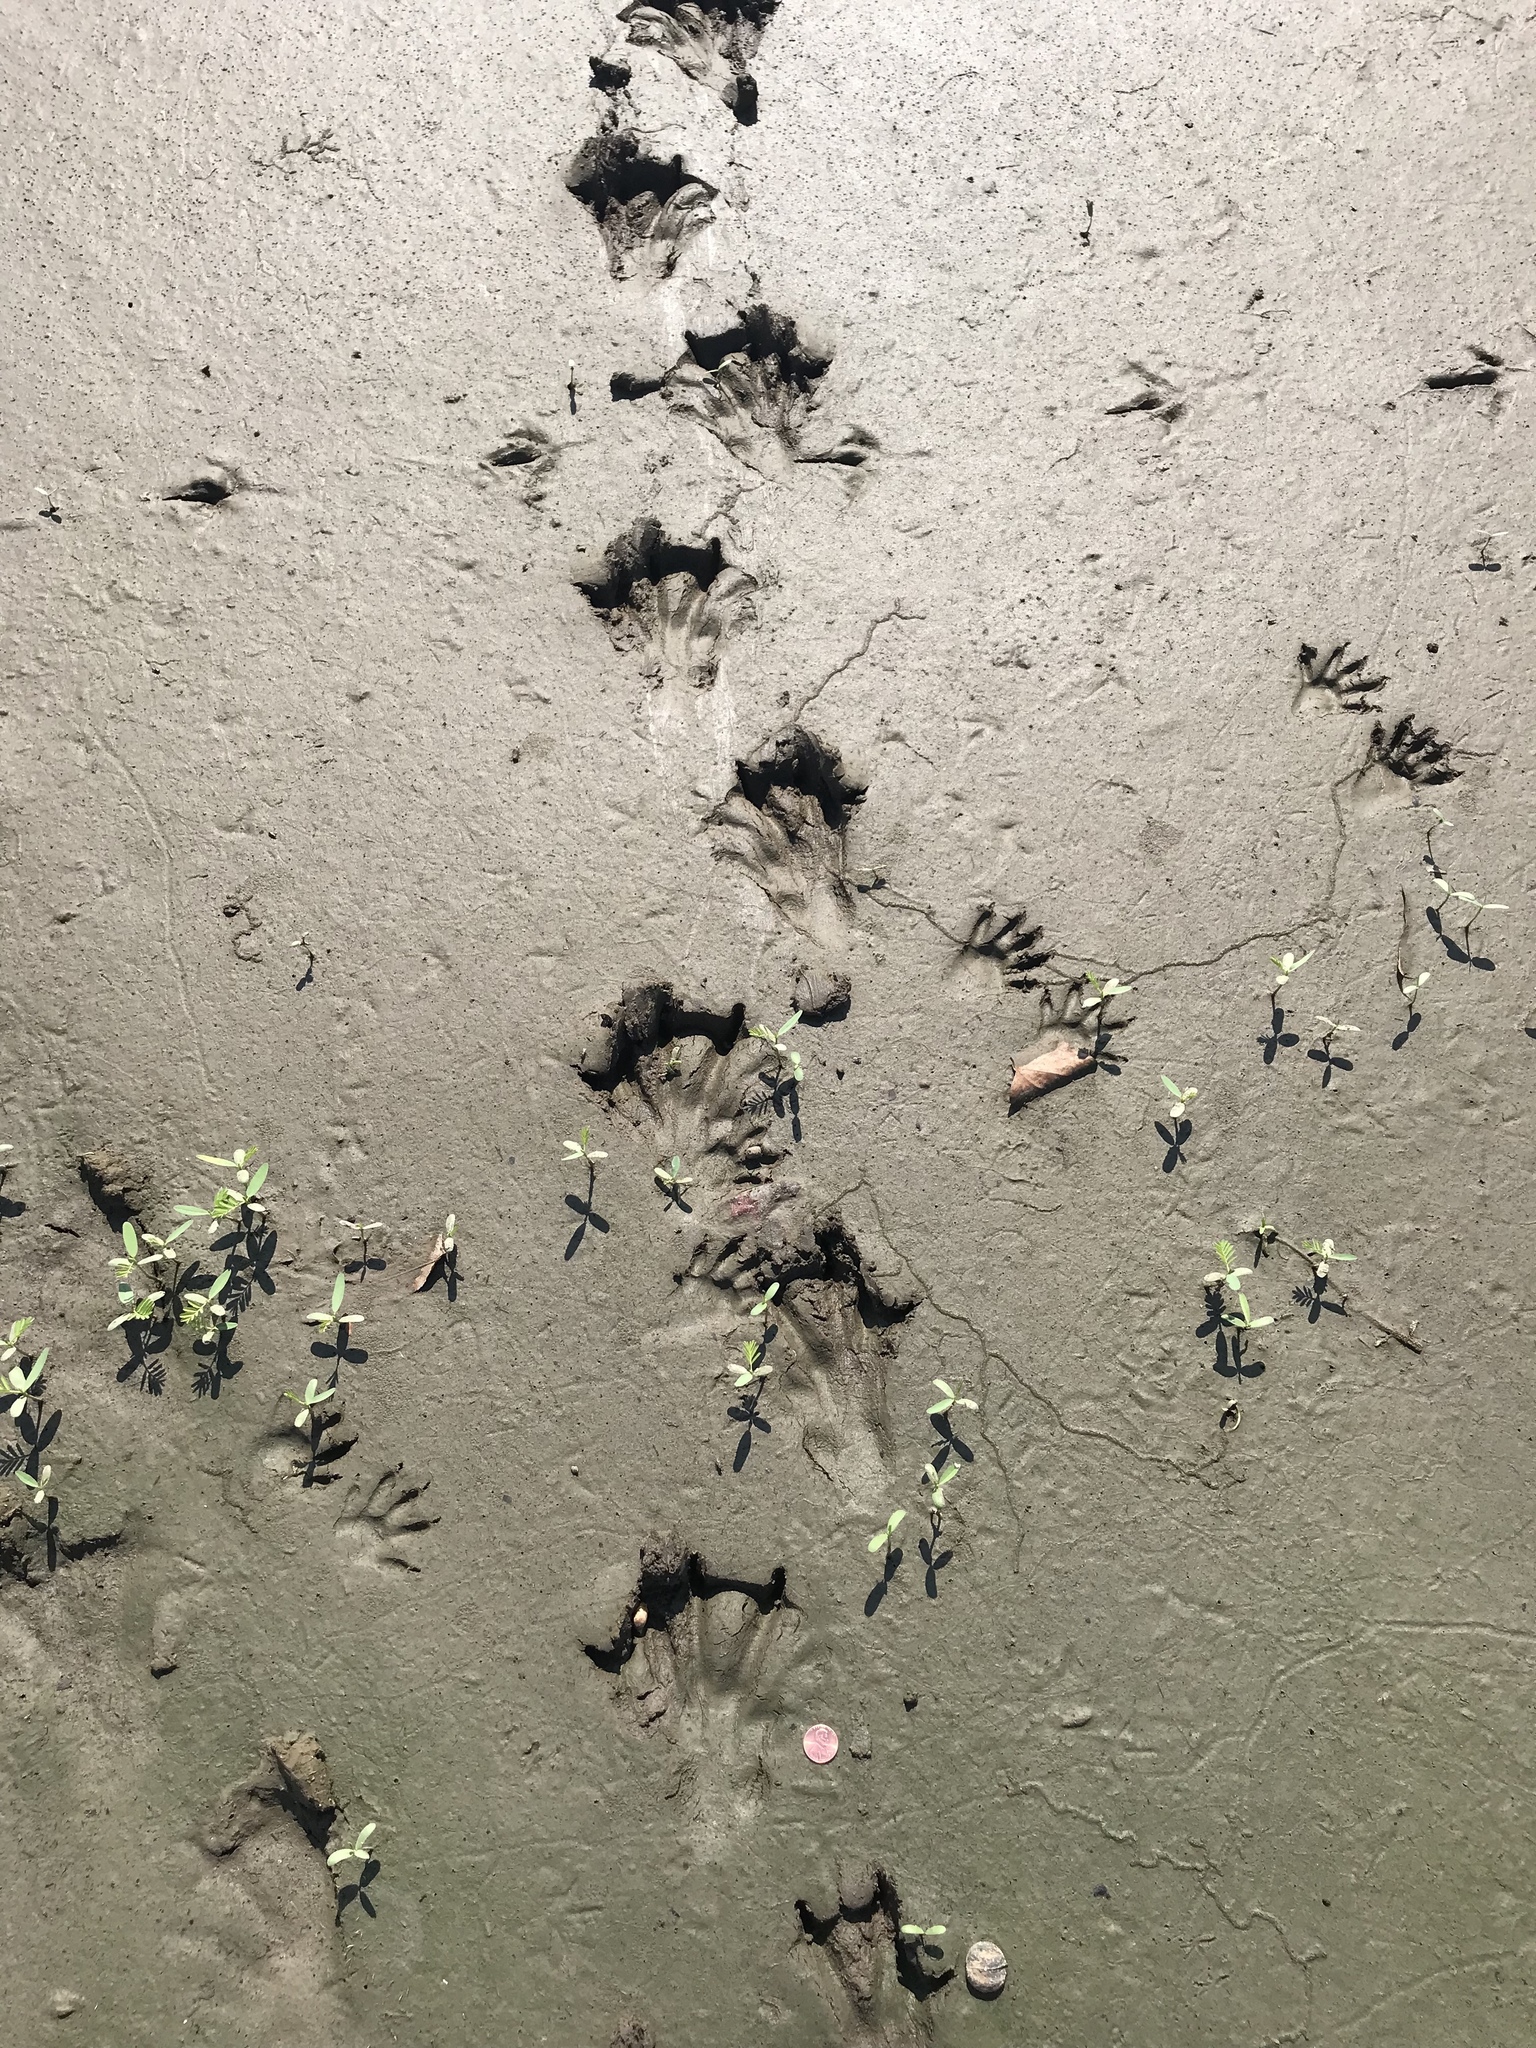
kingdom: Animalia
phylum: Chordata
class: Mammalia
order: Rodentia
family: Castoridae
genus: Castor
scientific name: Castor canadensis
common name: American beaver
